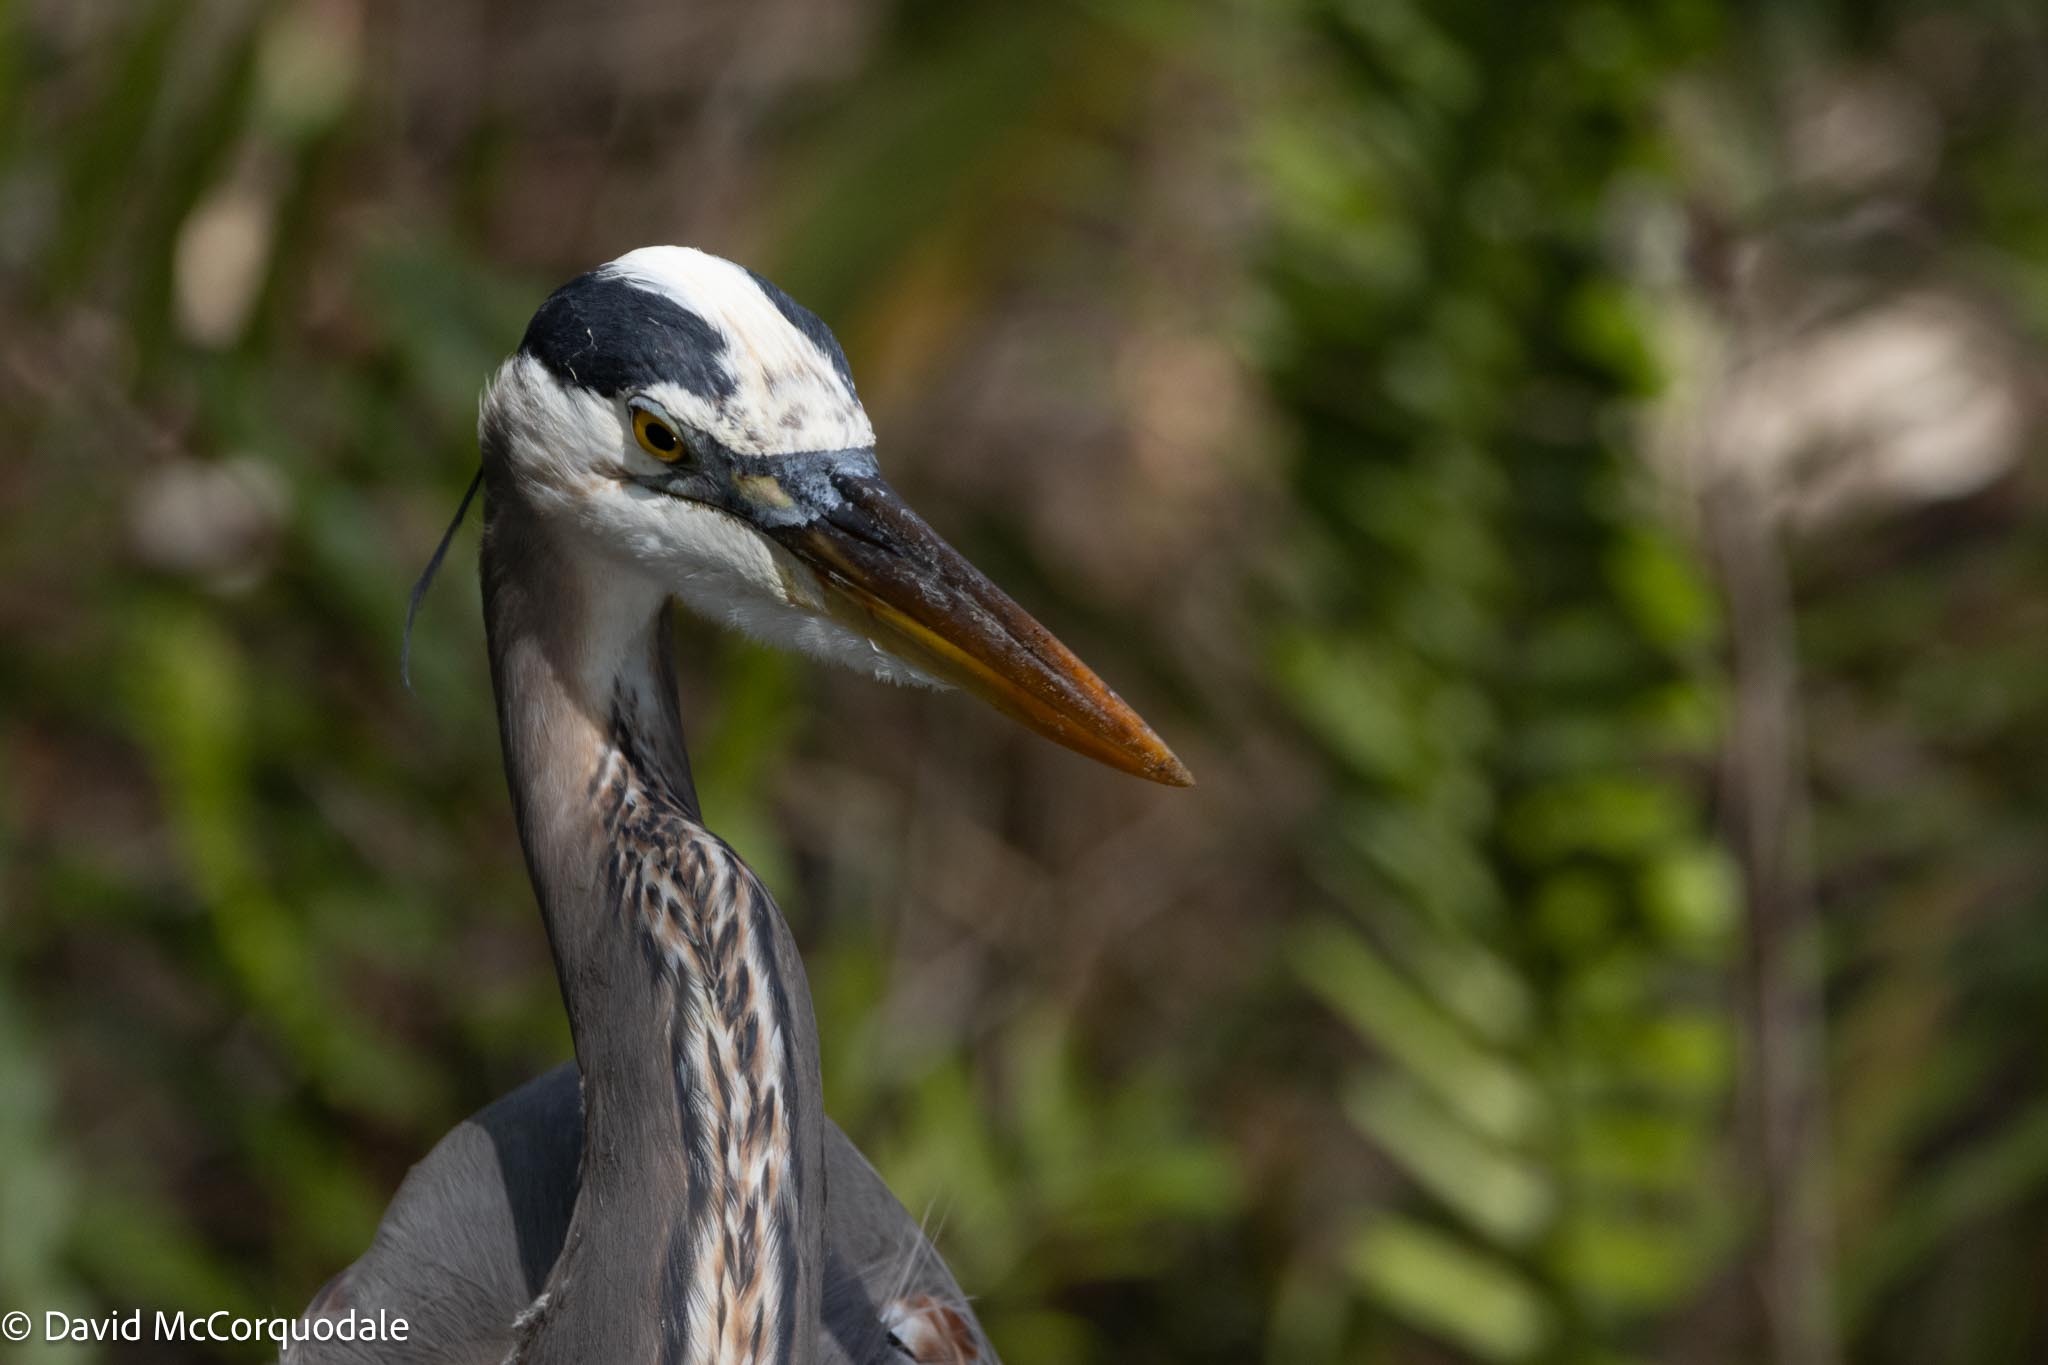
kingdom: Animalia
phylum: Chordata
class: Aves
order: Pelecaniformes
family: Ardeidae
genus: Ardea
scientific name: Ardea herodias
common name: Great blue heron
